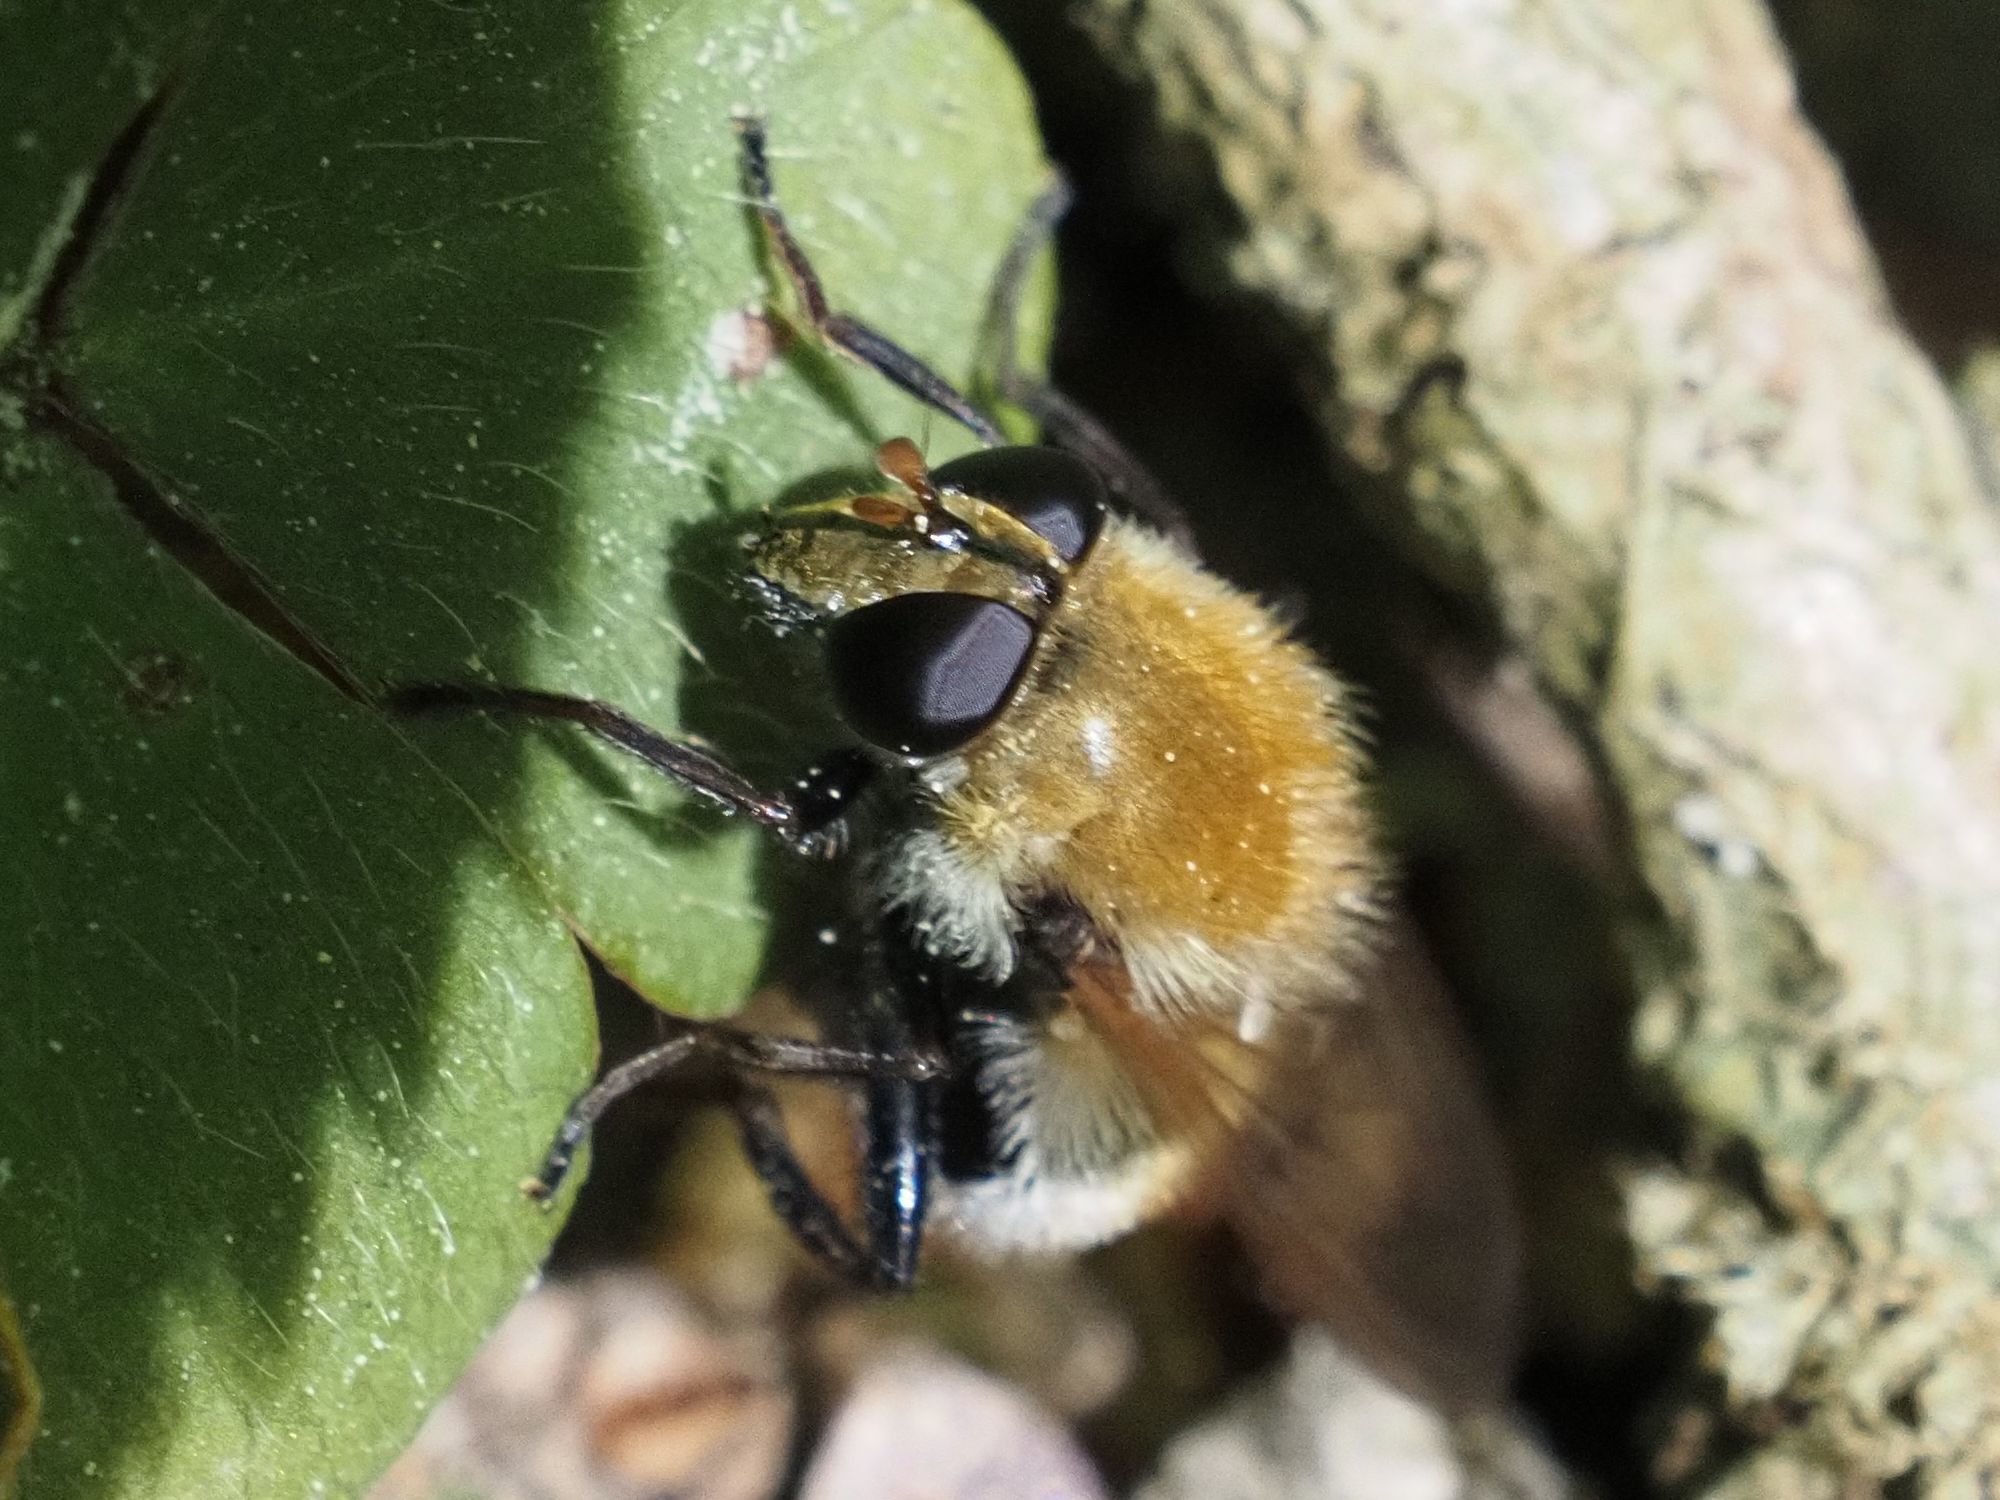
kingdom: Animalia
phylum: Arthropoda
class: Insecta
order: Diptera
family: Syrphidae
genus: Criorhina
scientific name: Criorhina berberina
